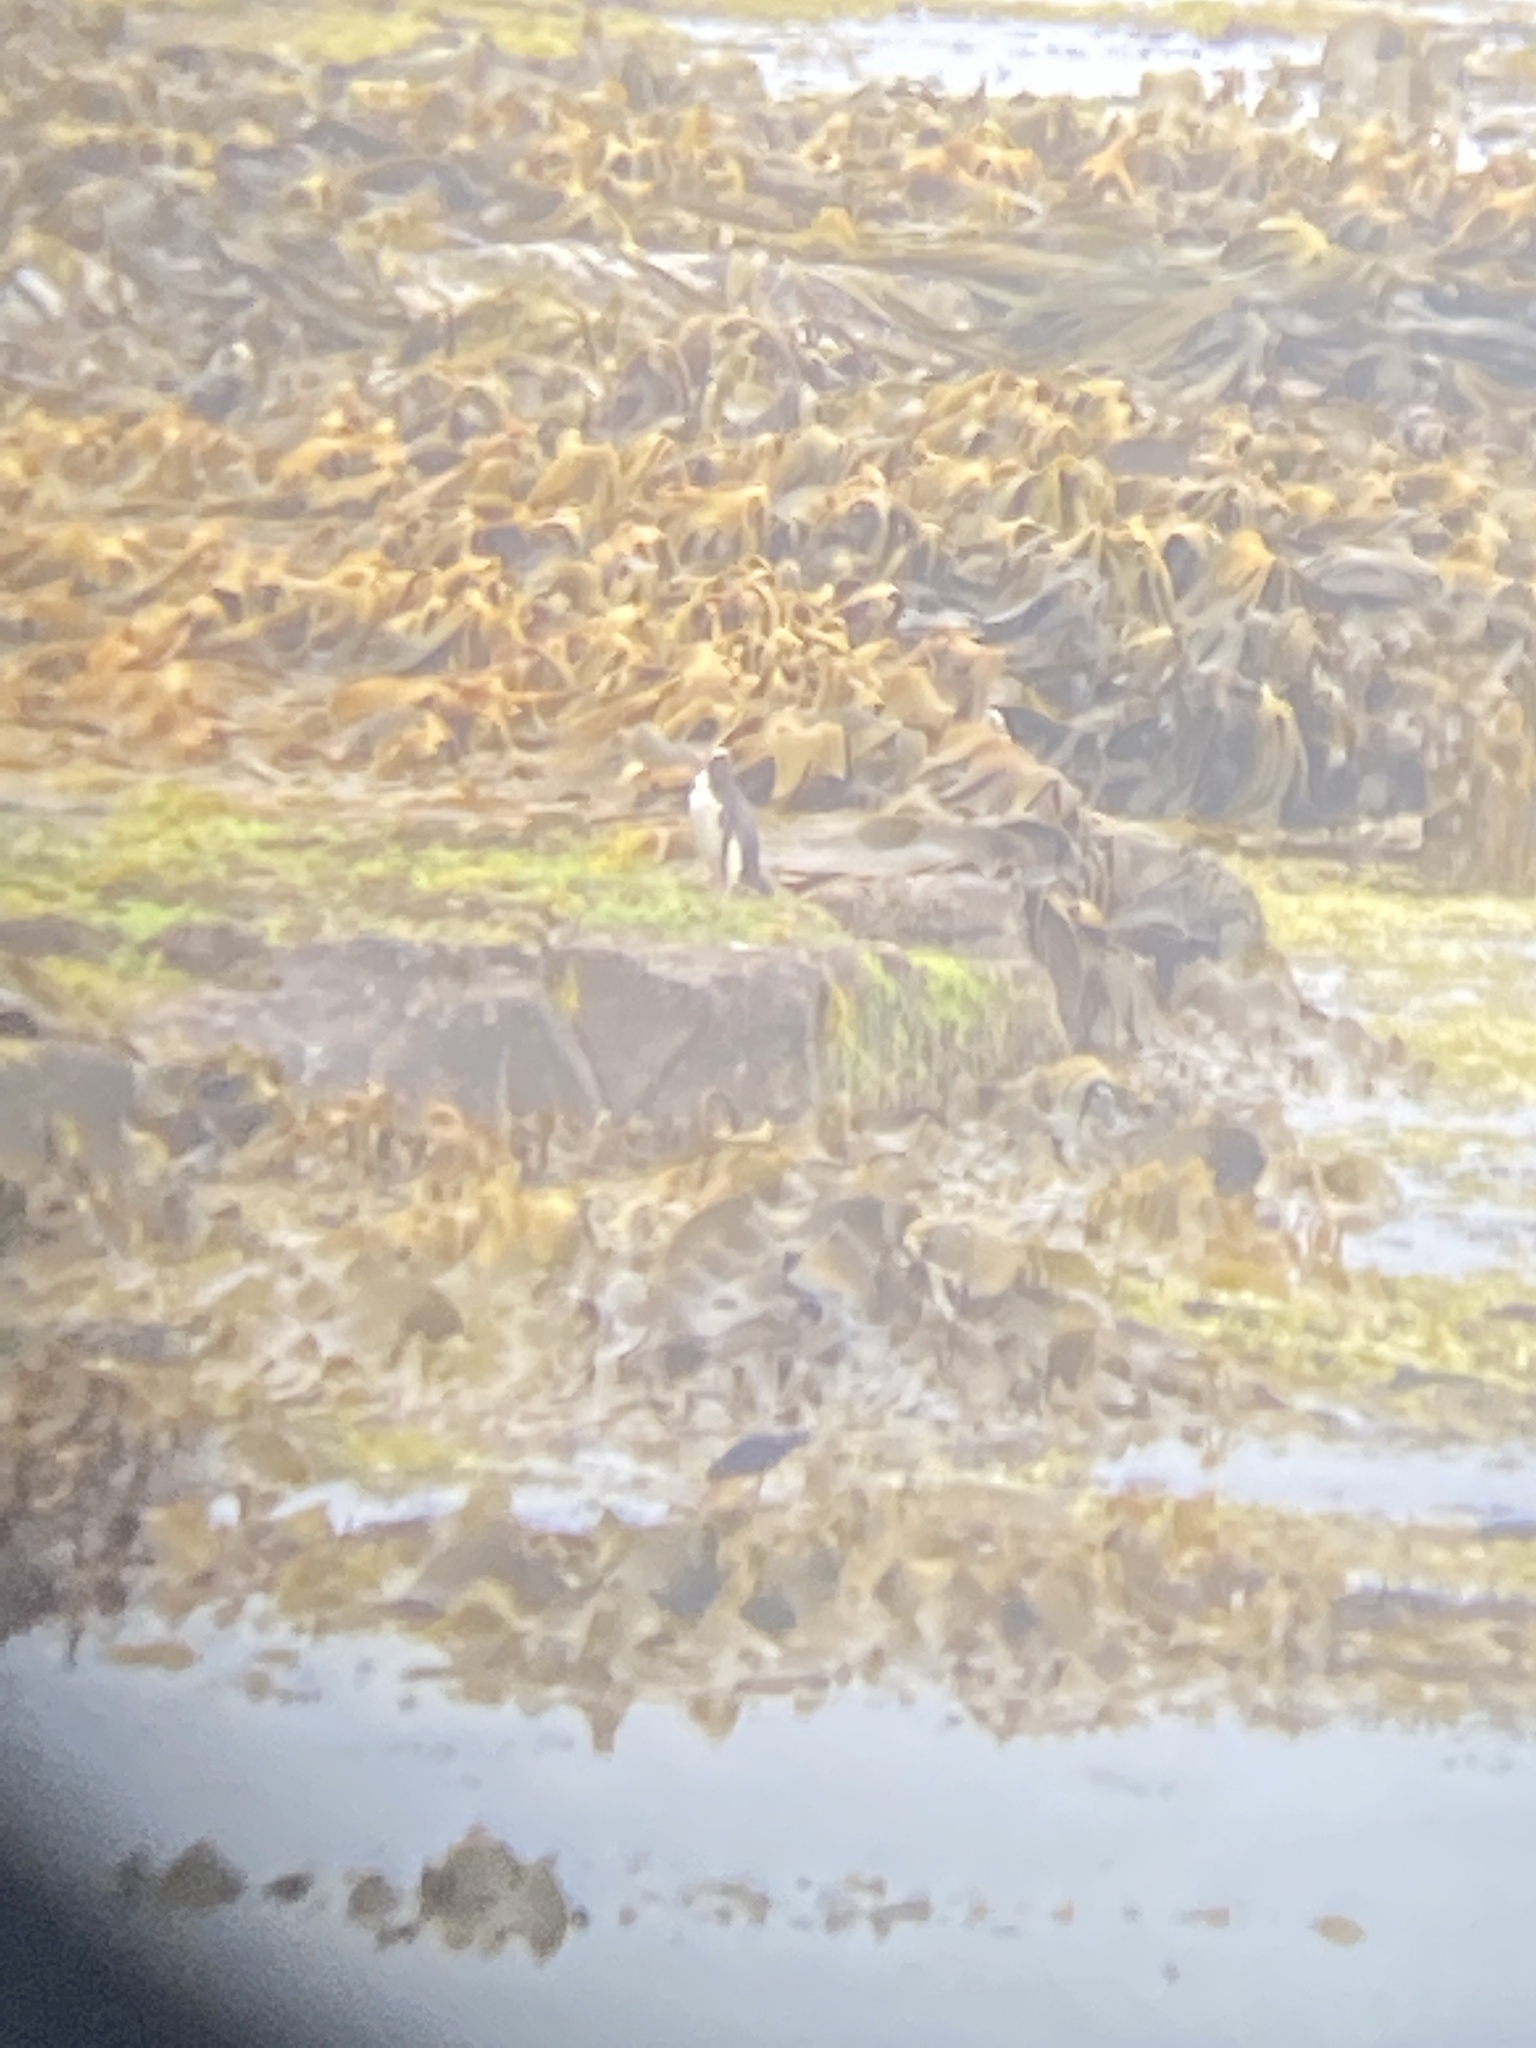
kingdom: Animalia
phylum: Chordata
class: Aves
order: Sphenisciformes
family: Spheniscidae
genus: Megadyptes
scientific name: Megadyptes antipodes
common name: Yellow-eyed penguin
